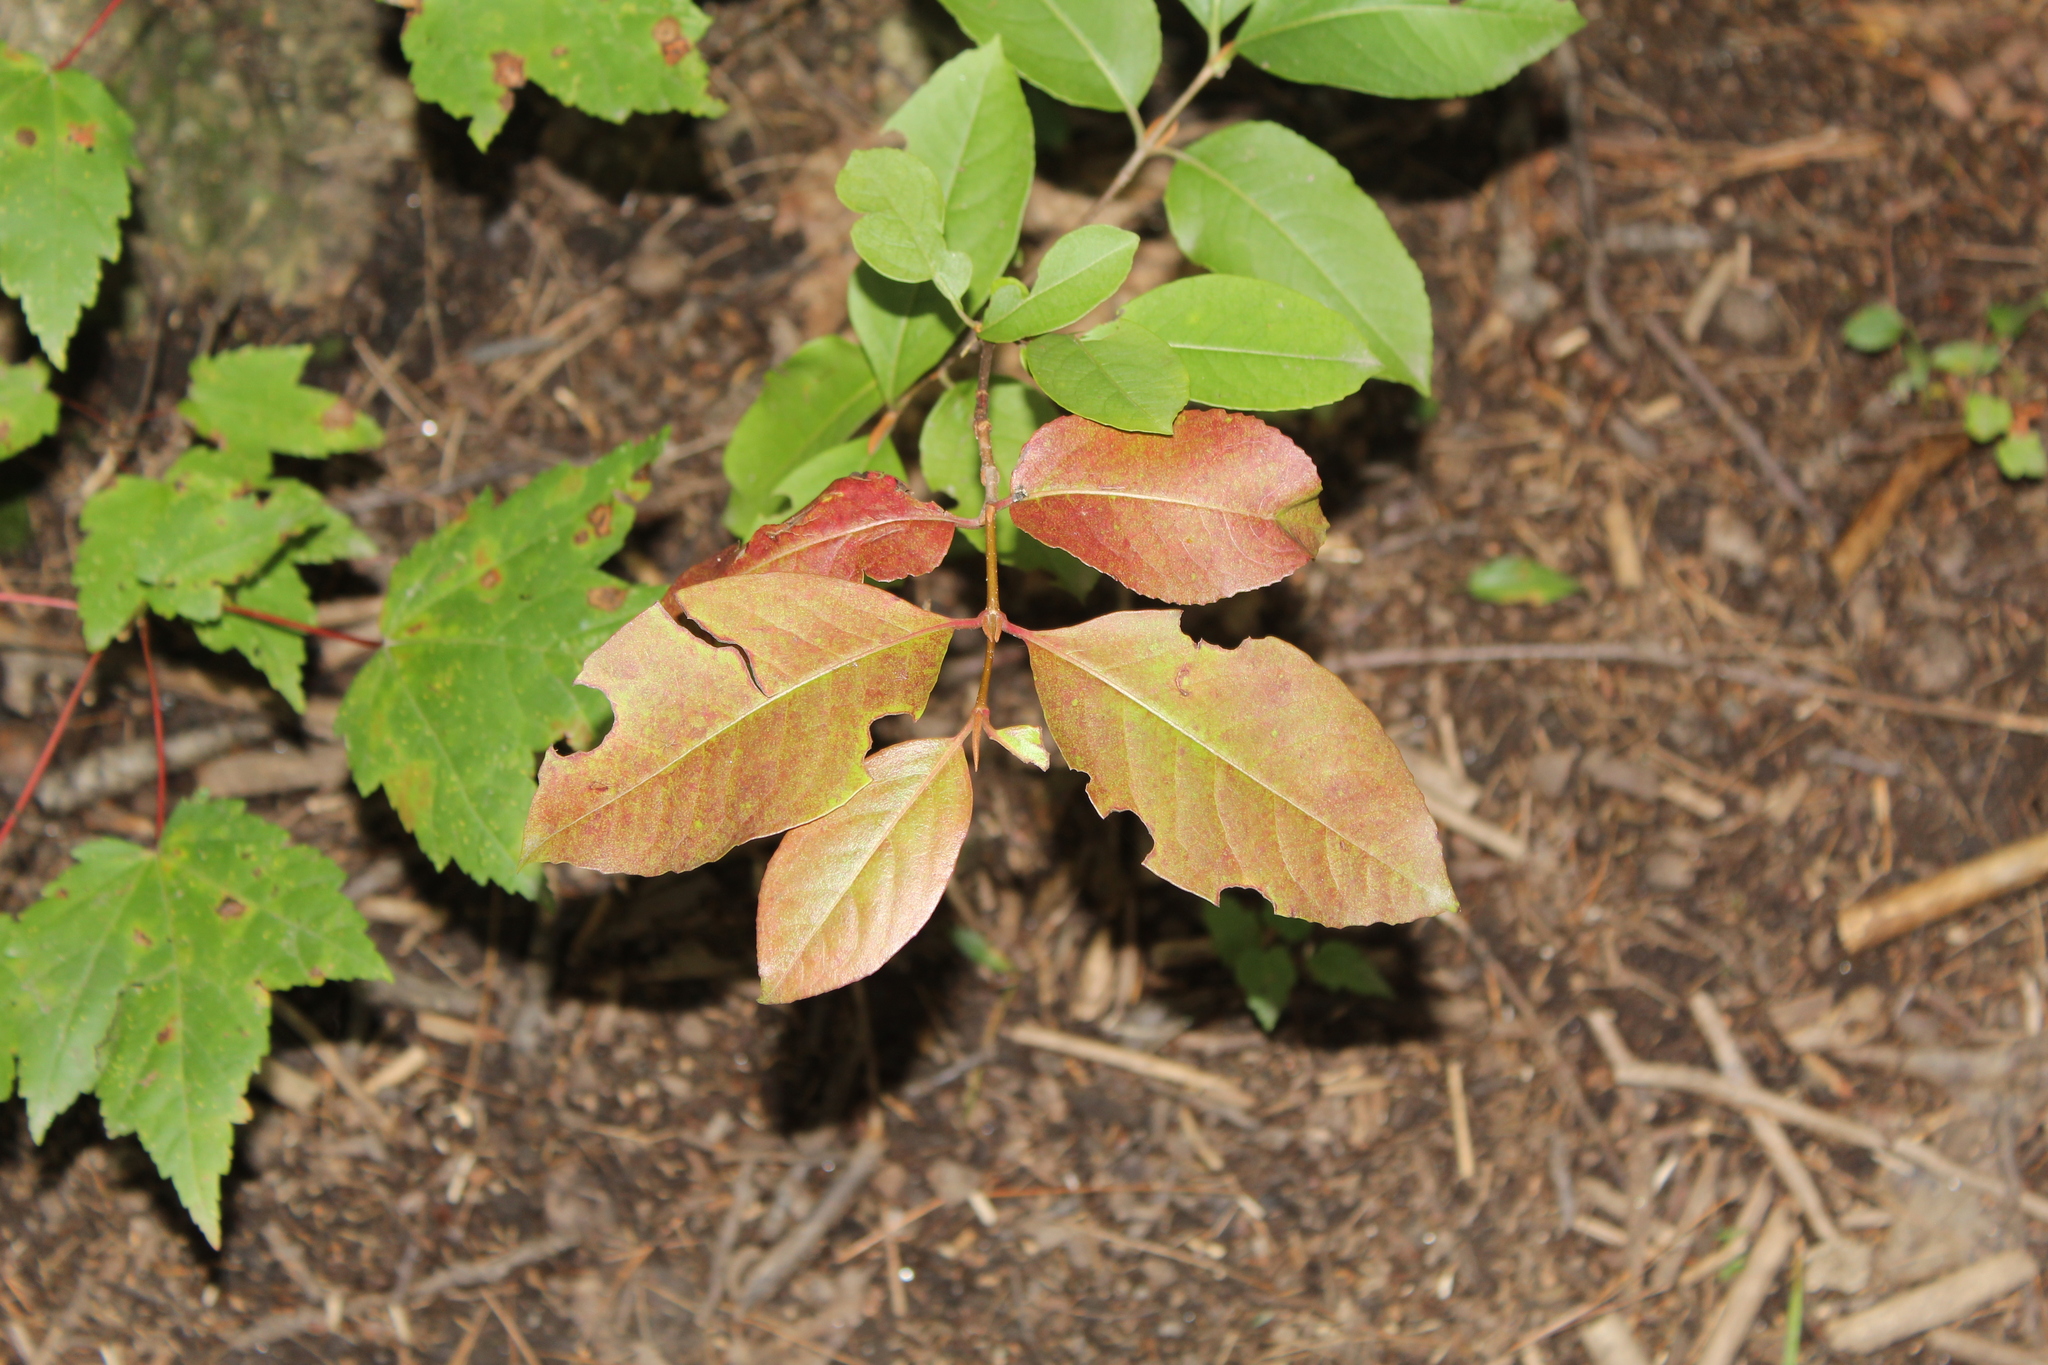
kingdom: Plantae
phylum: Tracheophyta
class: Magnoliopsida
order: Dipsacales
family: Viburnaceae
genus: Viburnum
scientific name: Viburnum cassinoides
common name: Swamp haw
